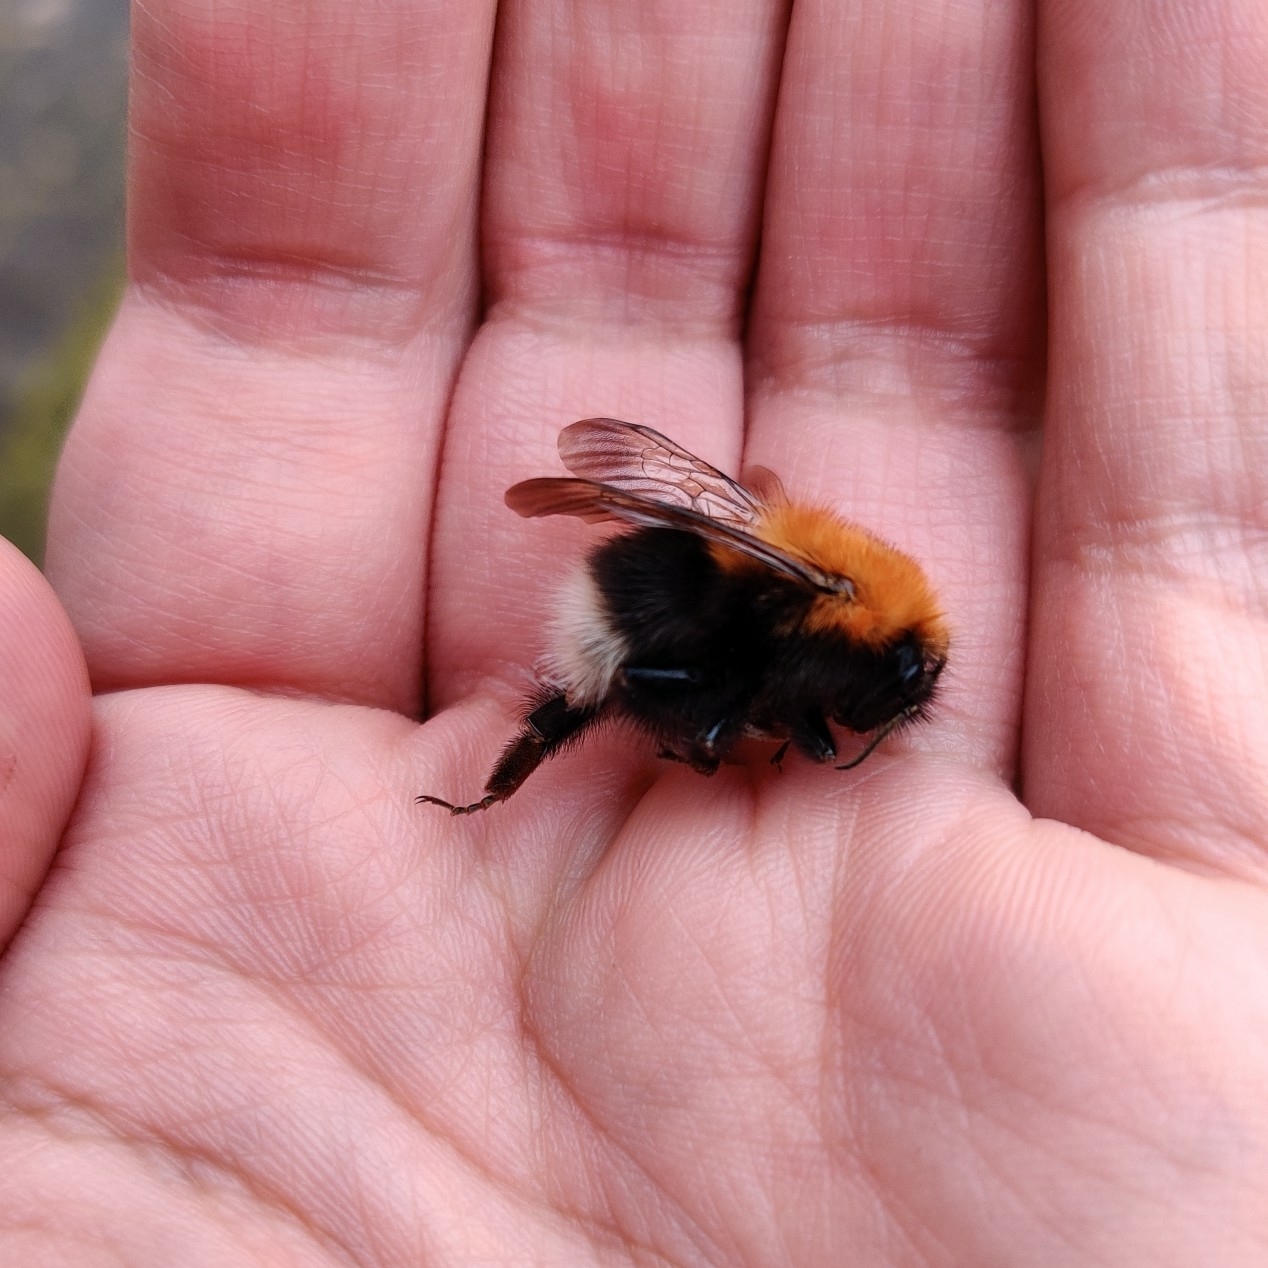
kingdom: Animalia
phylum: Arthropoda
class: Insecta
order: Hymenoptera
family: Apidae
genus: Bombus
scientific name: Bombus hypnorum
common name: New garden bumblebee
